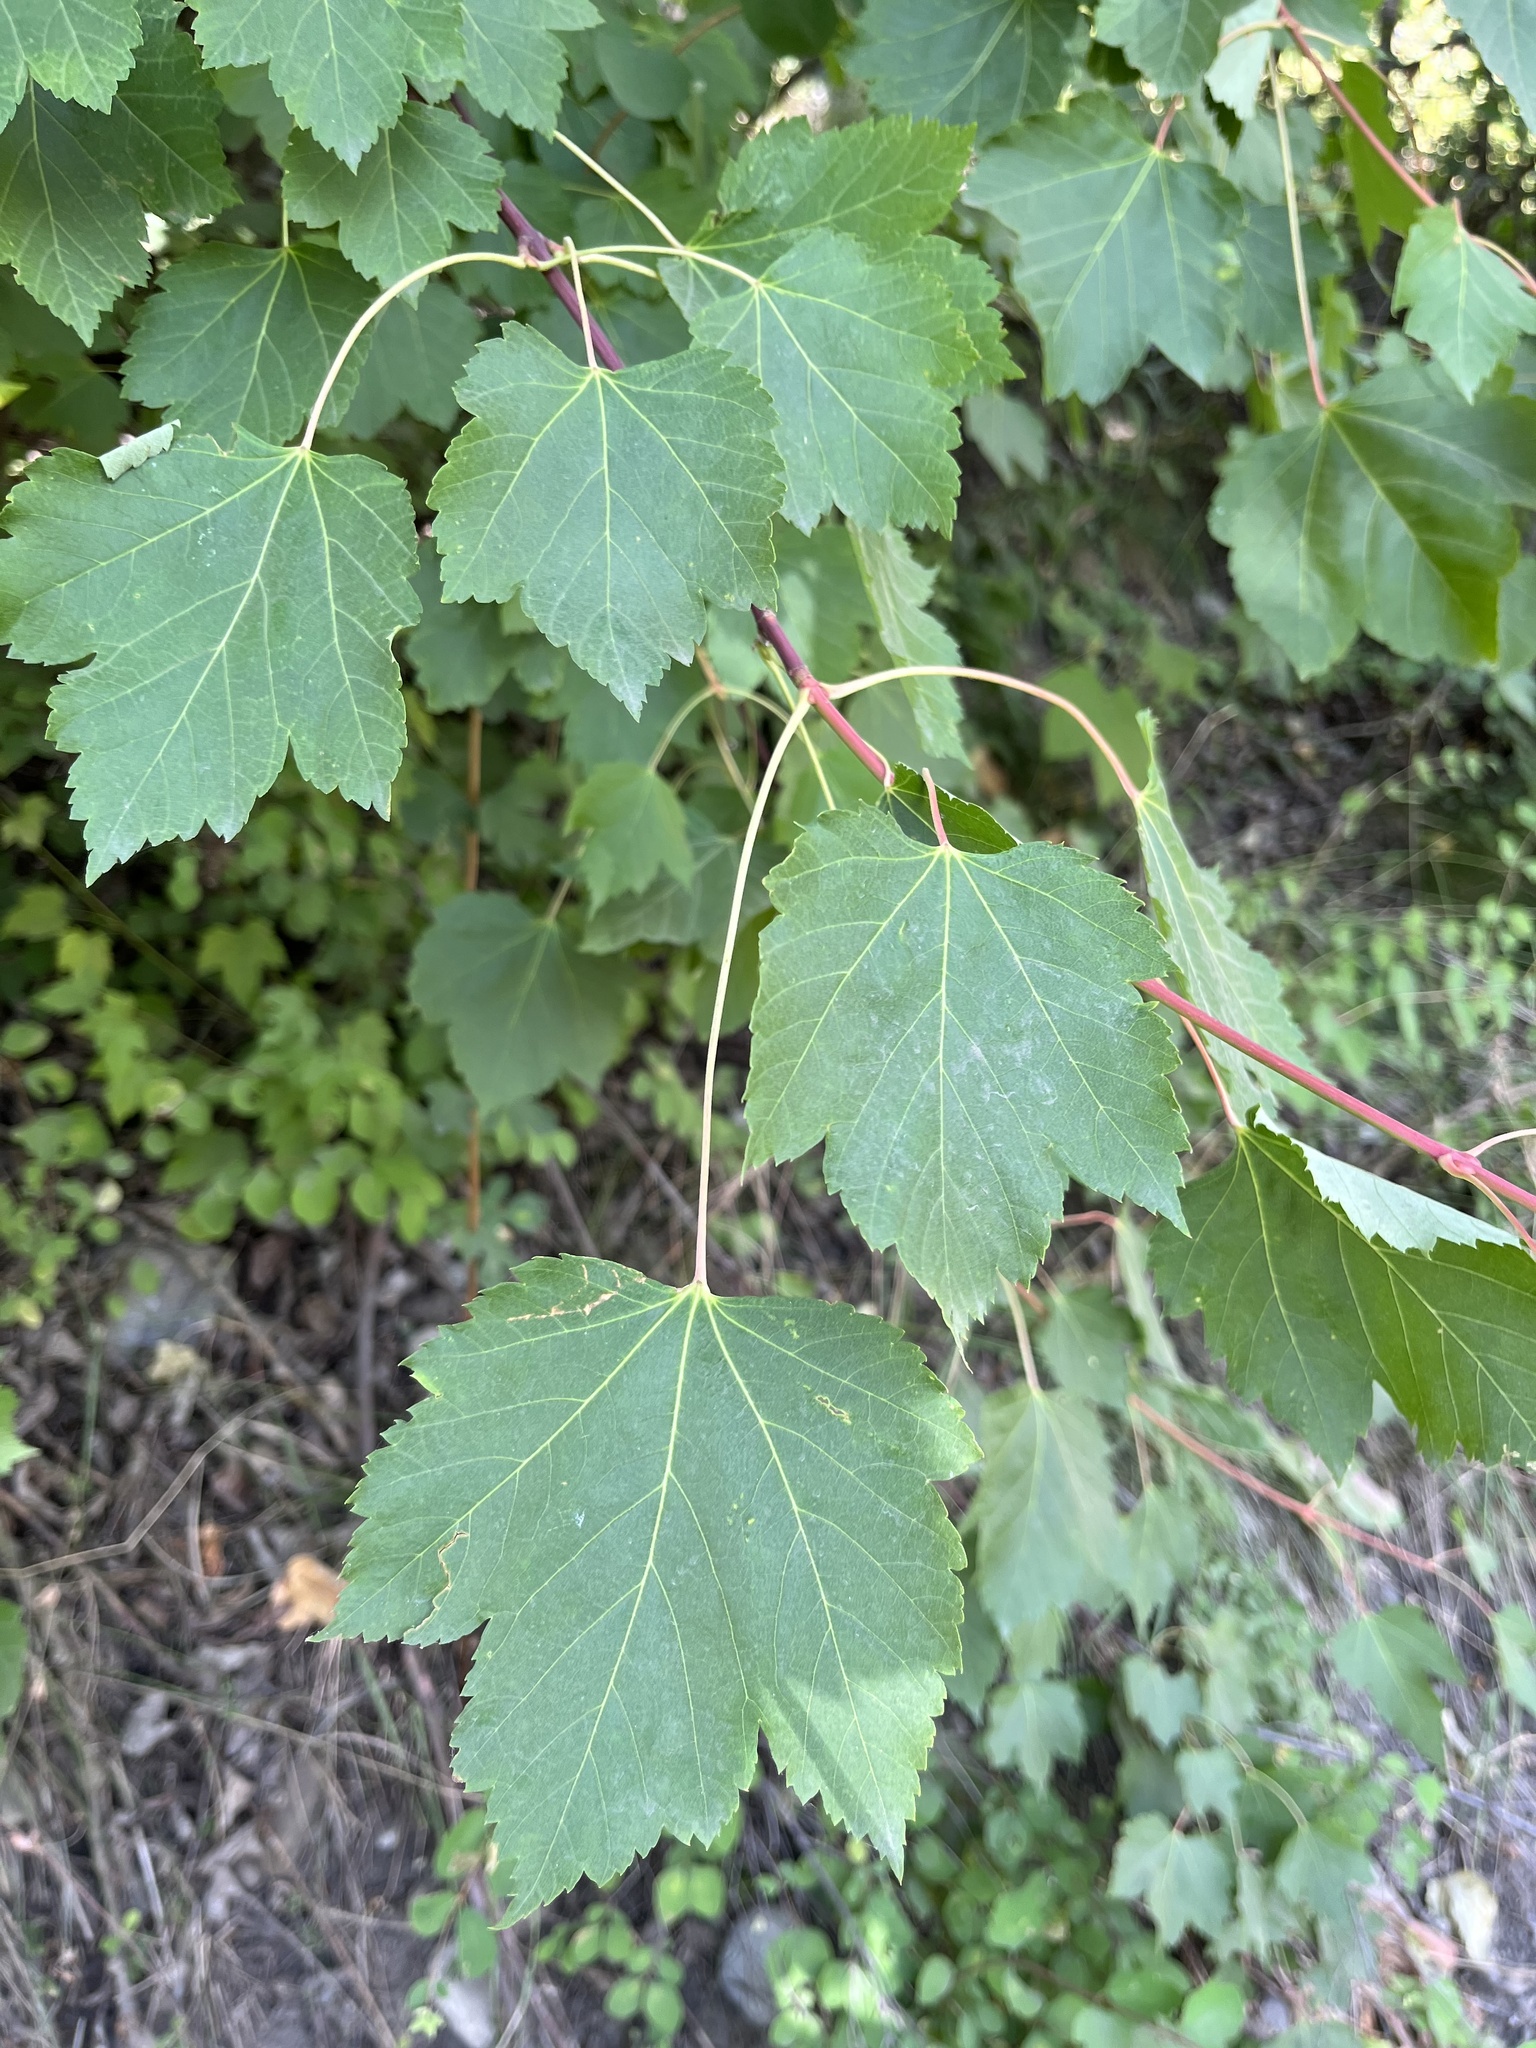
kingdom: Plantae
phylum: Tracheophyta
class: Magnoliopsida
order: Sapindales
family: Sapindaceae
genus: Acer
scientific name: Acer glabrum
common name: Rocky mountain maple
